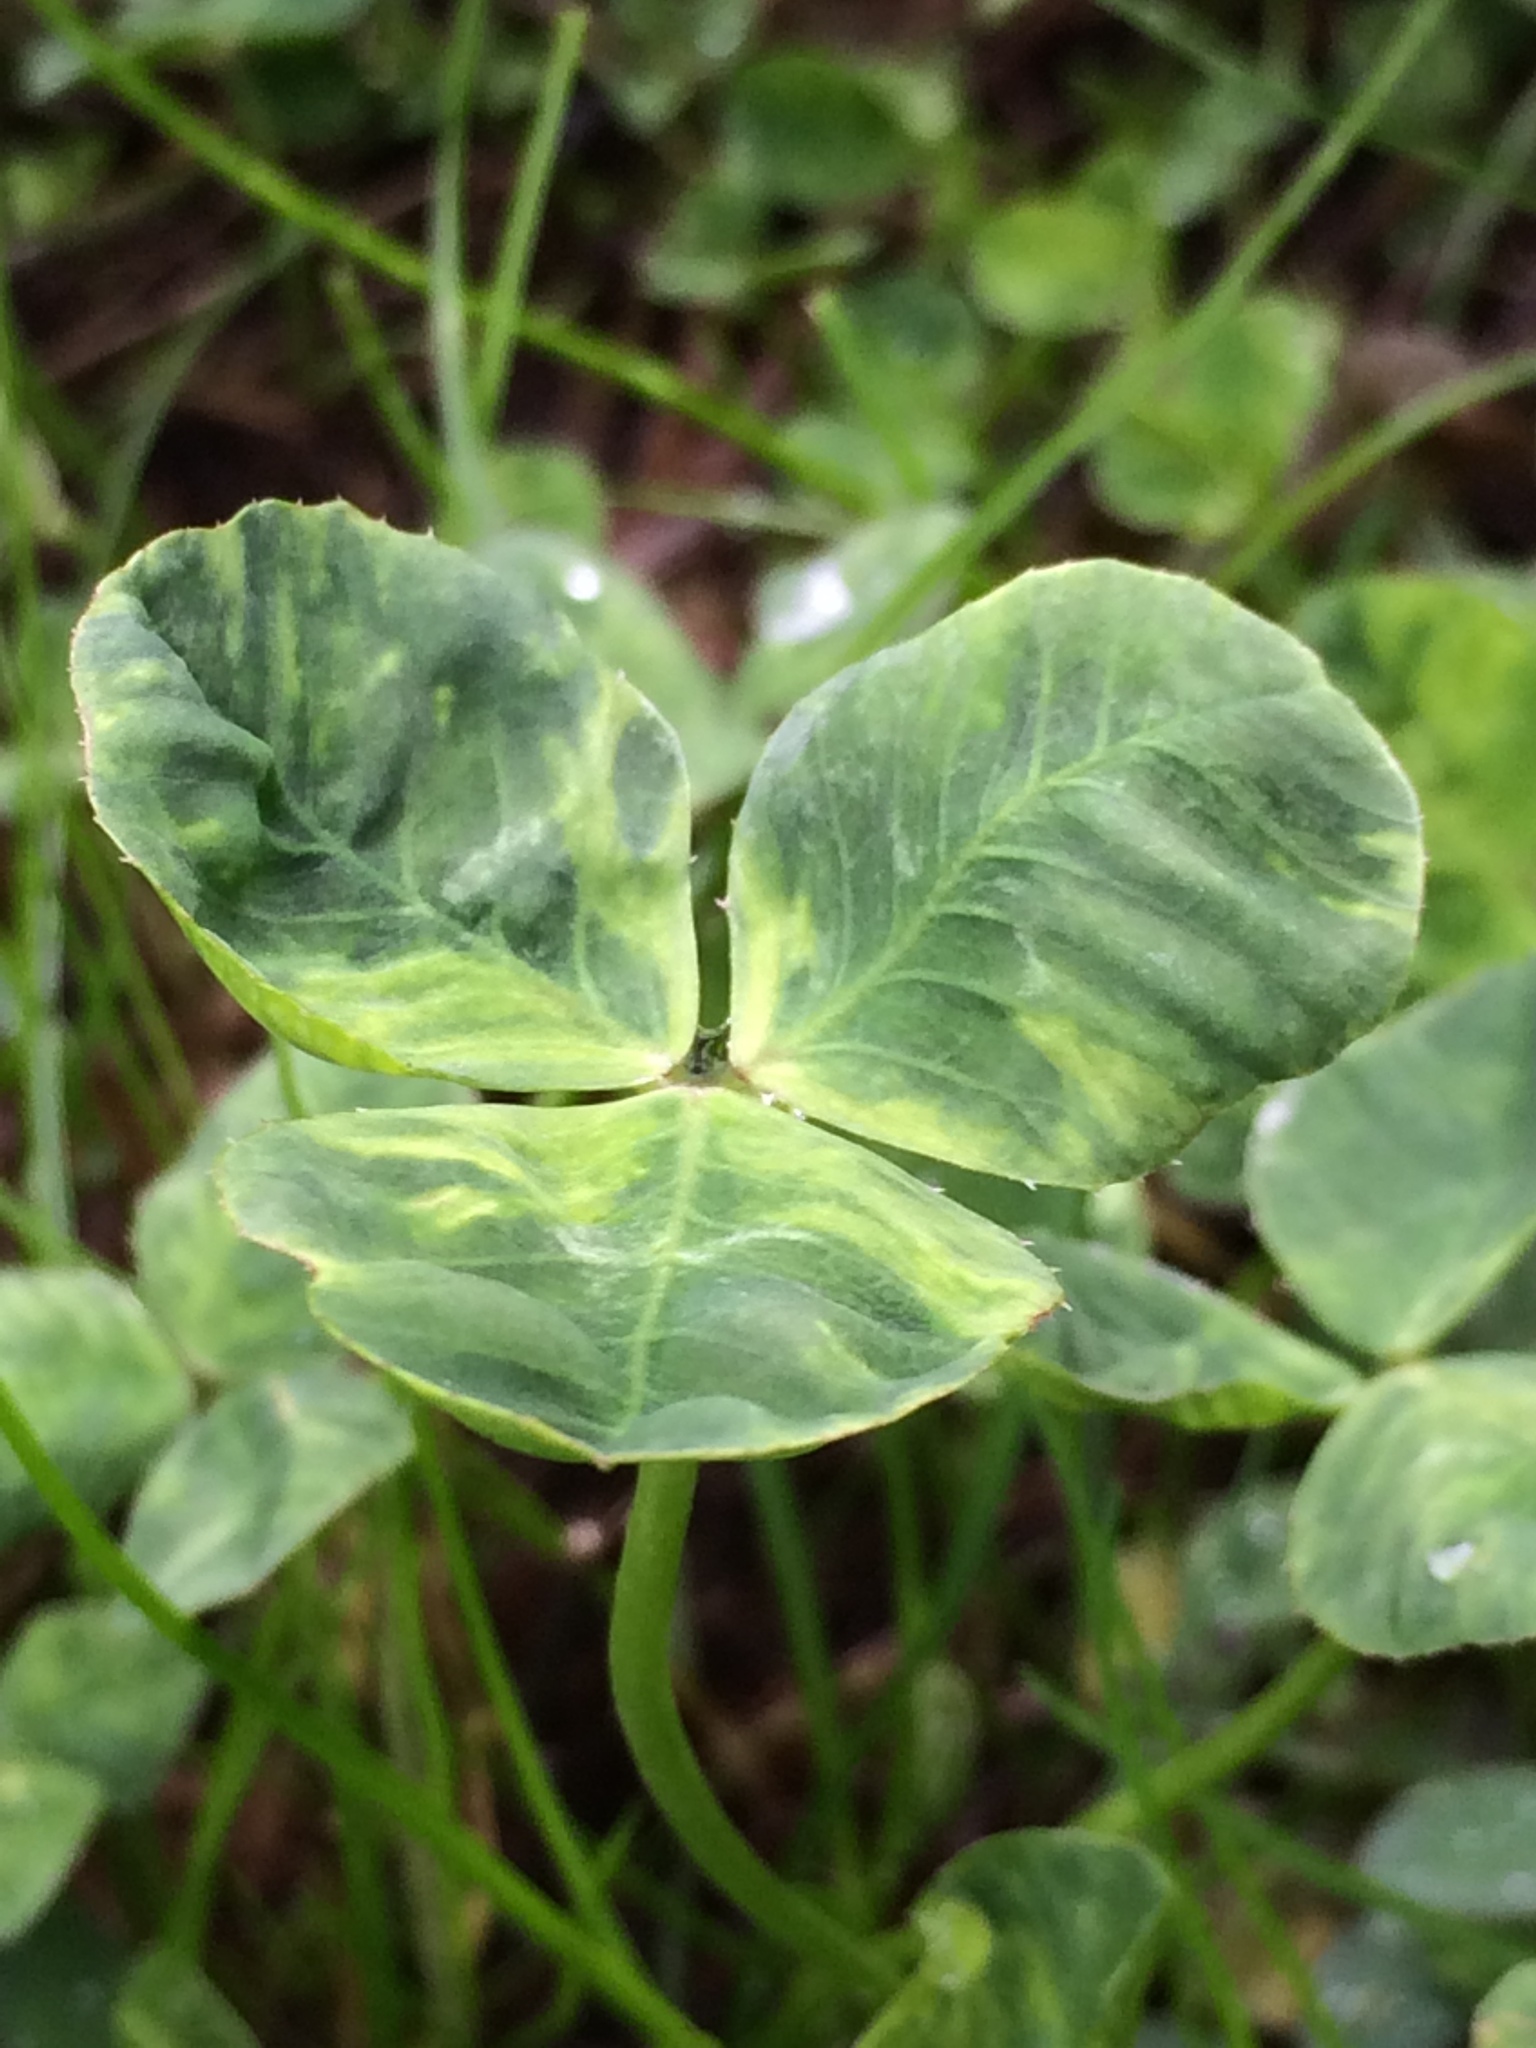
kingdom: Plantae
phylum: Tracheophyta
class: Magnoliopsida
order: Fabales
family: Fabaceae
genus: Trifolium
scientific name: Trifolium repens
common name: White clover
